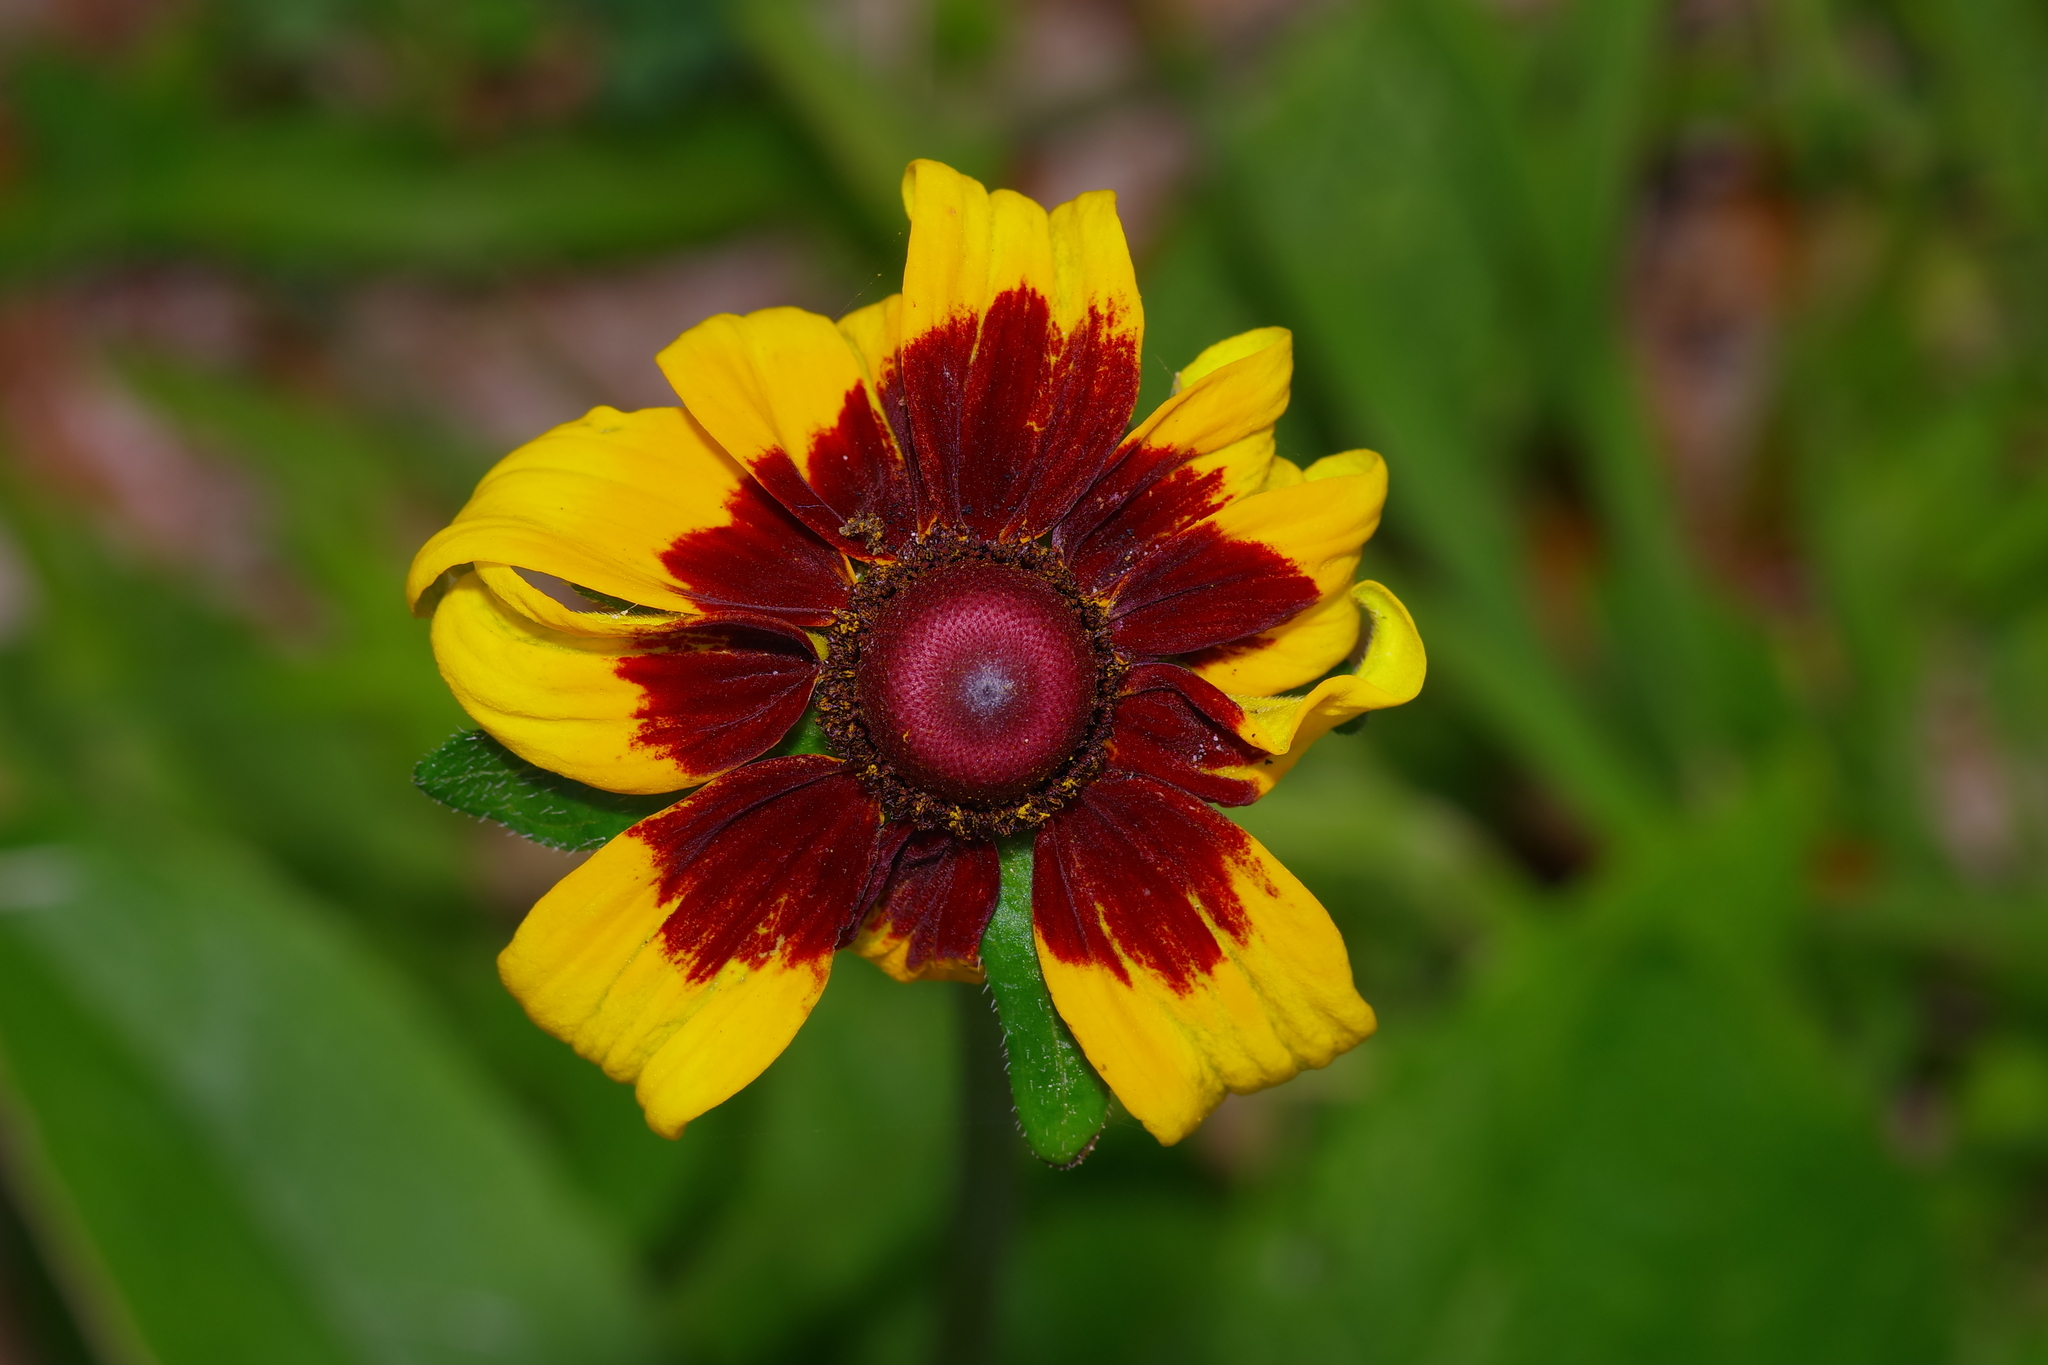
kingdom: Plantae
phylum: Tracheophyta
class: Magnoliopsida
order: Asterales
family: Asteraceae
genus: Rudbeckia
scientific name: Rudbeckia hirta
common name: Black-eyed-susan
